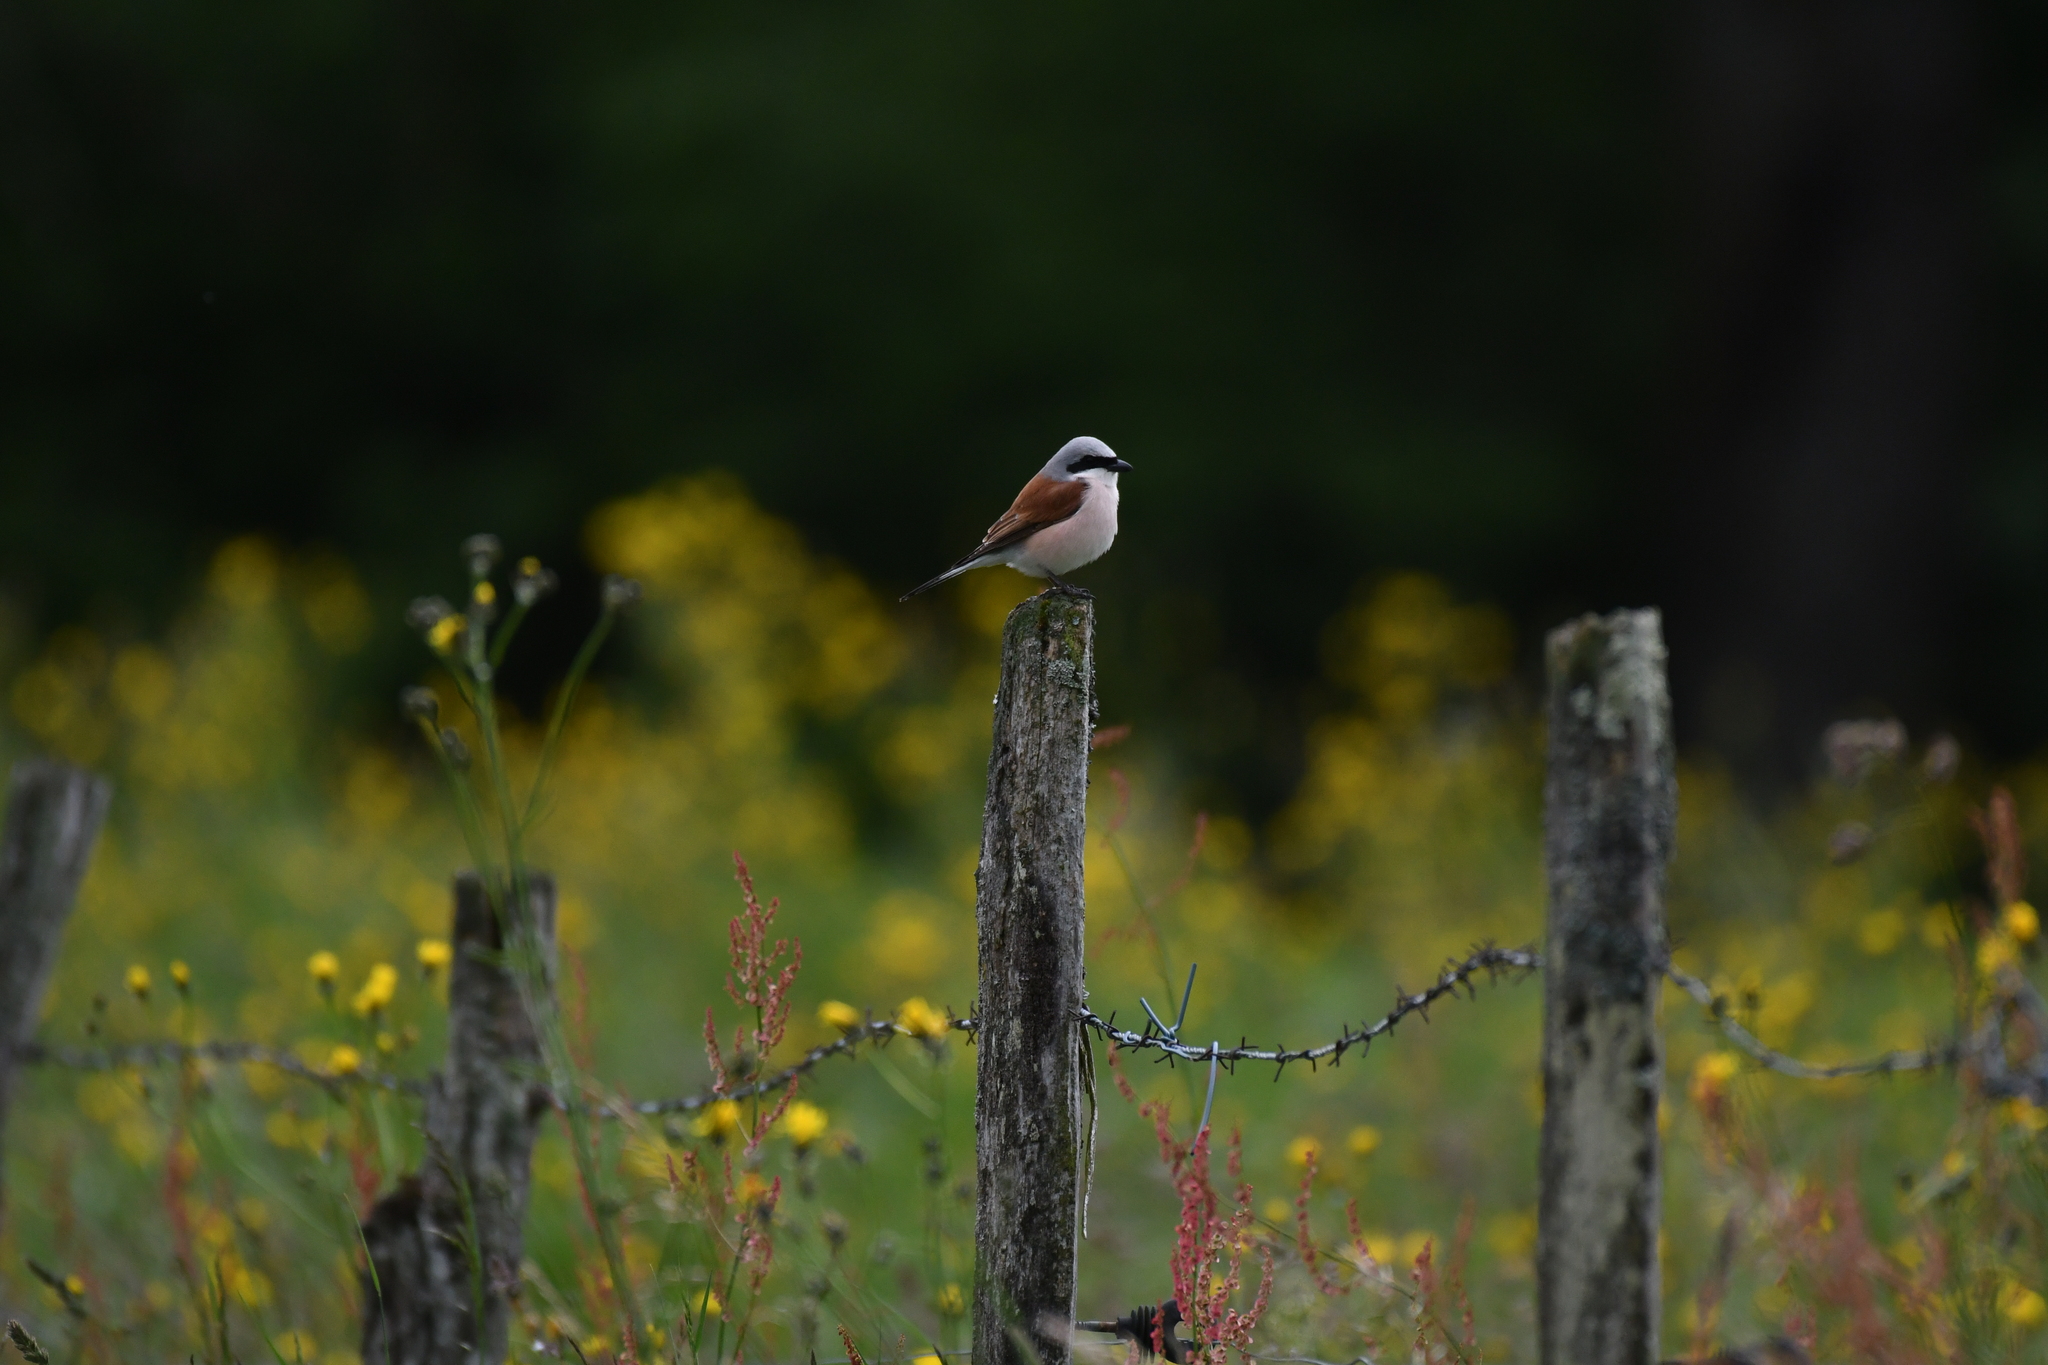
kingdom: Animalia
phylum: Chordata
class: Aves
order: Passeriformes
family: Laniidae
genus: Lanius
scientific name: Lanius collurio
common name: Red-backed shrike
